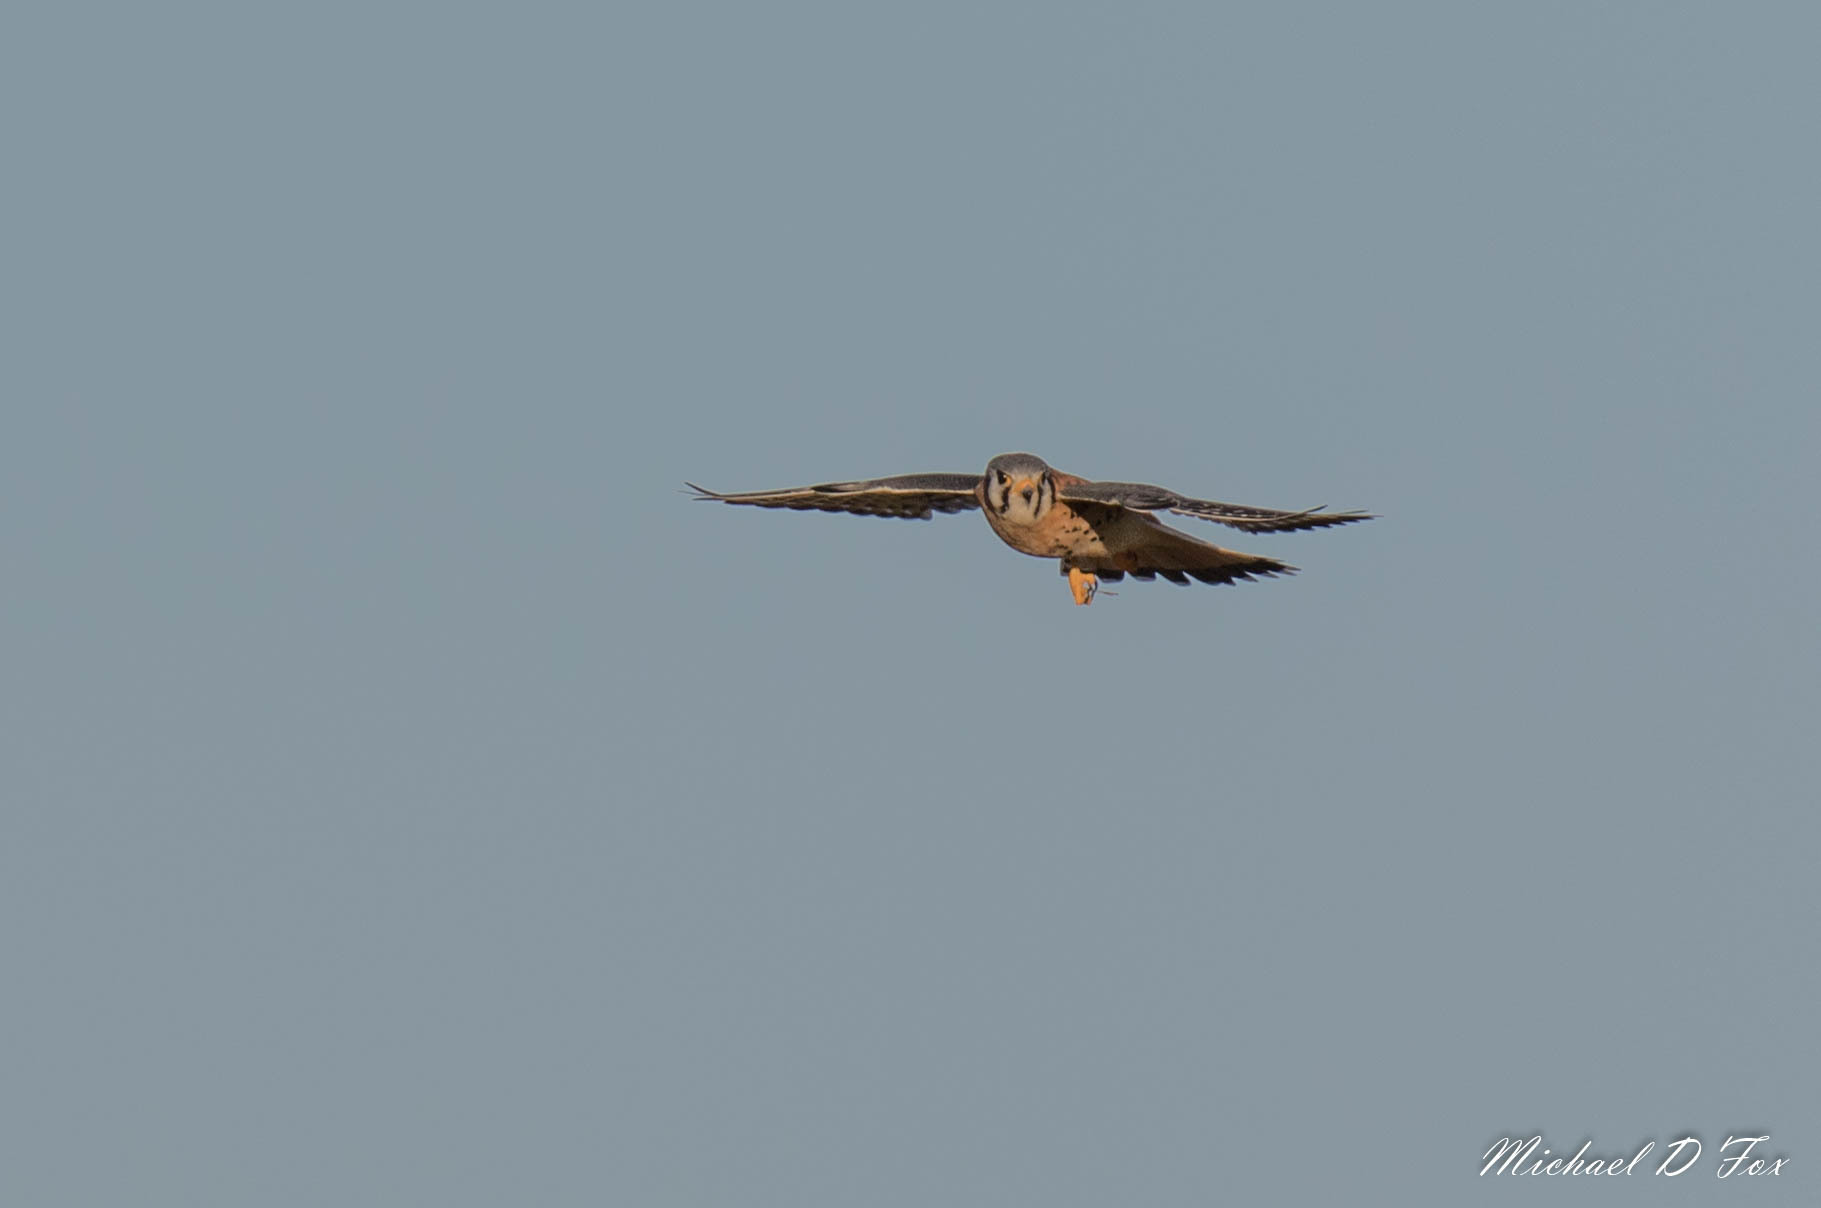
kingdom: Animalia
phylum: Chordata
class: Aves
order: Falconiformes
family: Falconidae
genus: Falco
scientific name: Falco sparverius
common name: American kestrel
